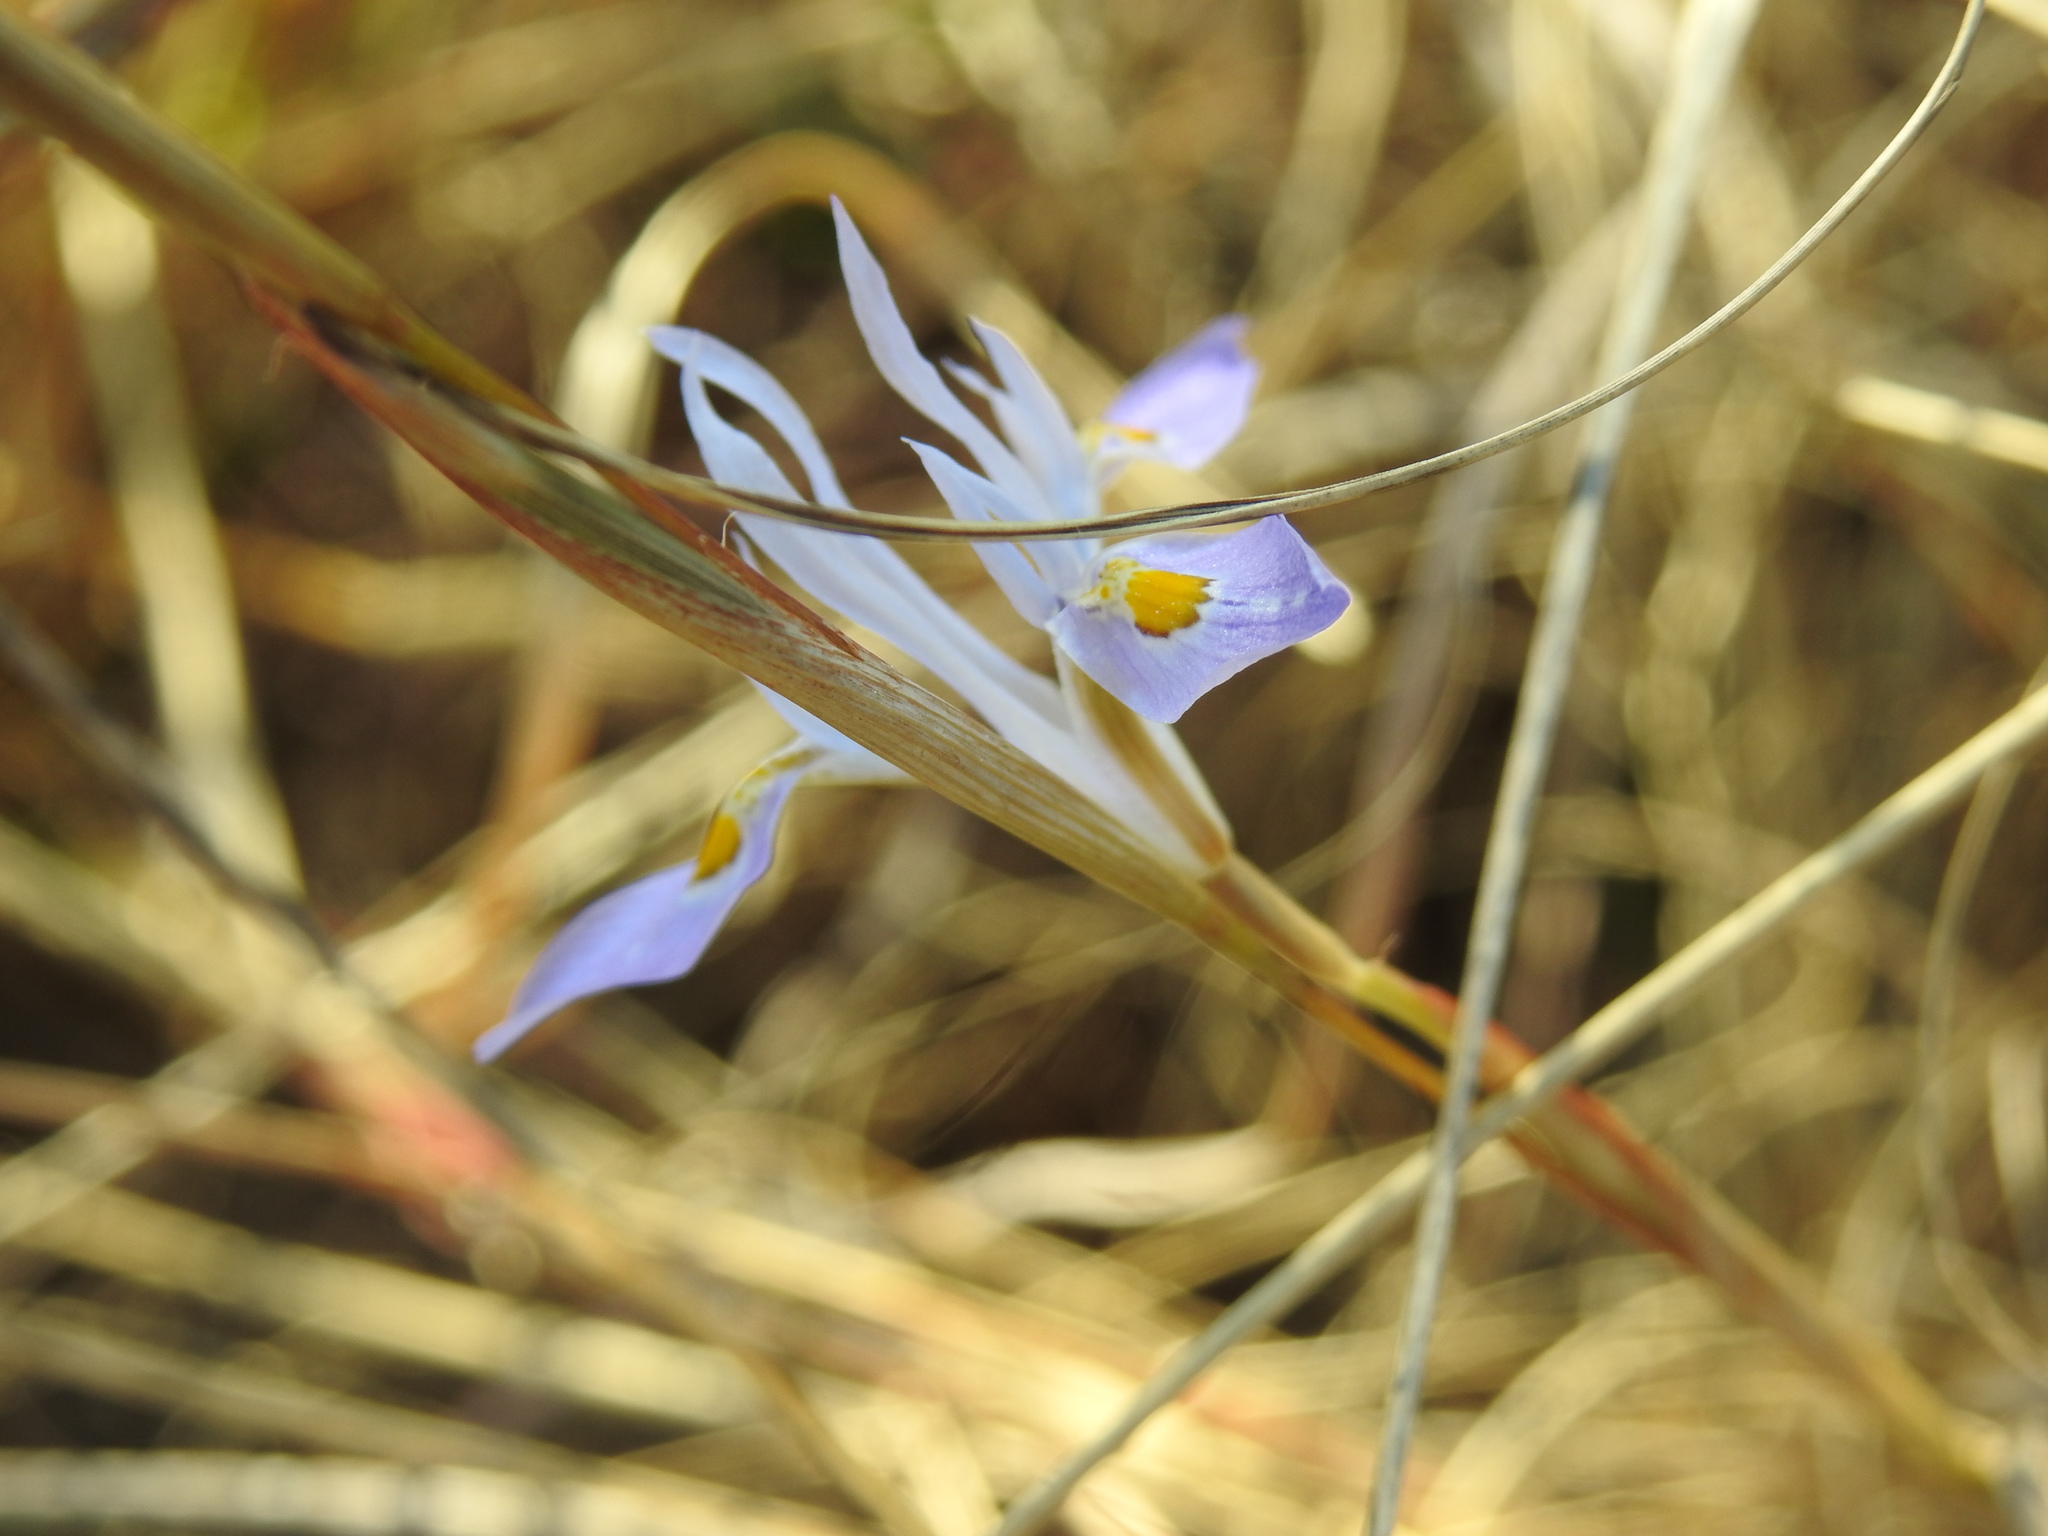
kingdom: Plantae
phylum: Tracheophyta
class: Liliopsida
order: Asparagales
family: Iridaceae
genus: Moraea
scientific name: Moraea stricta
